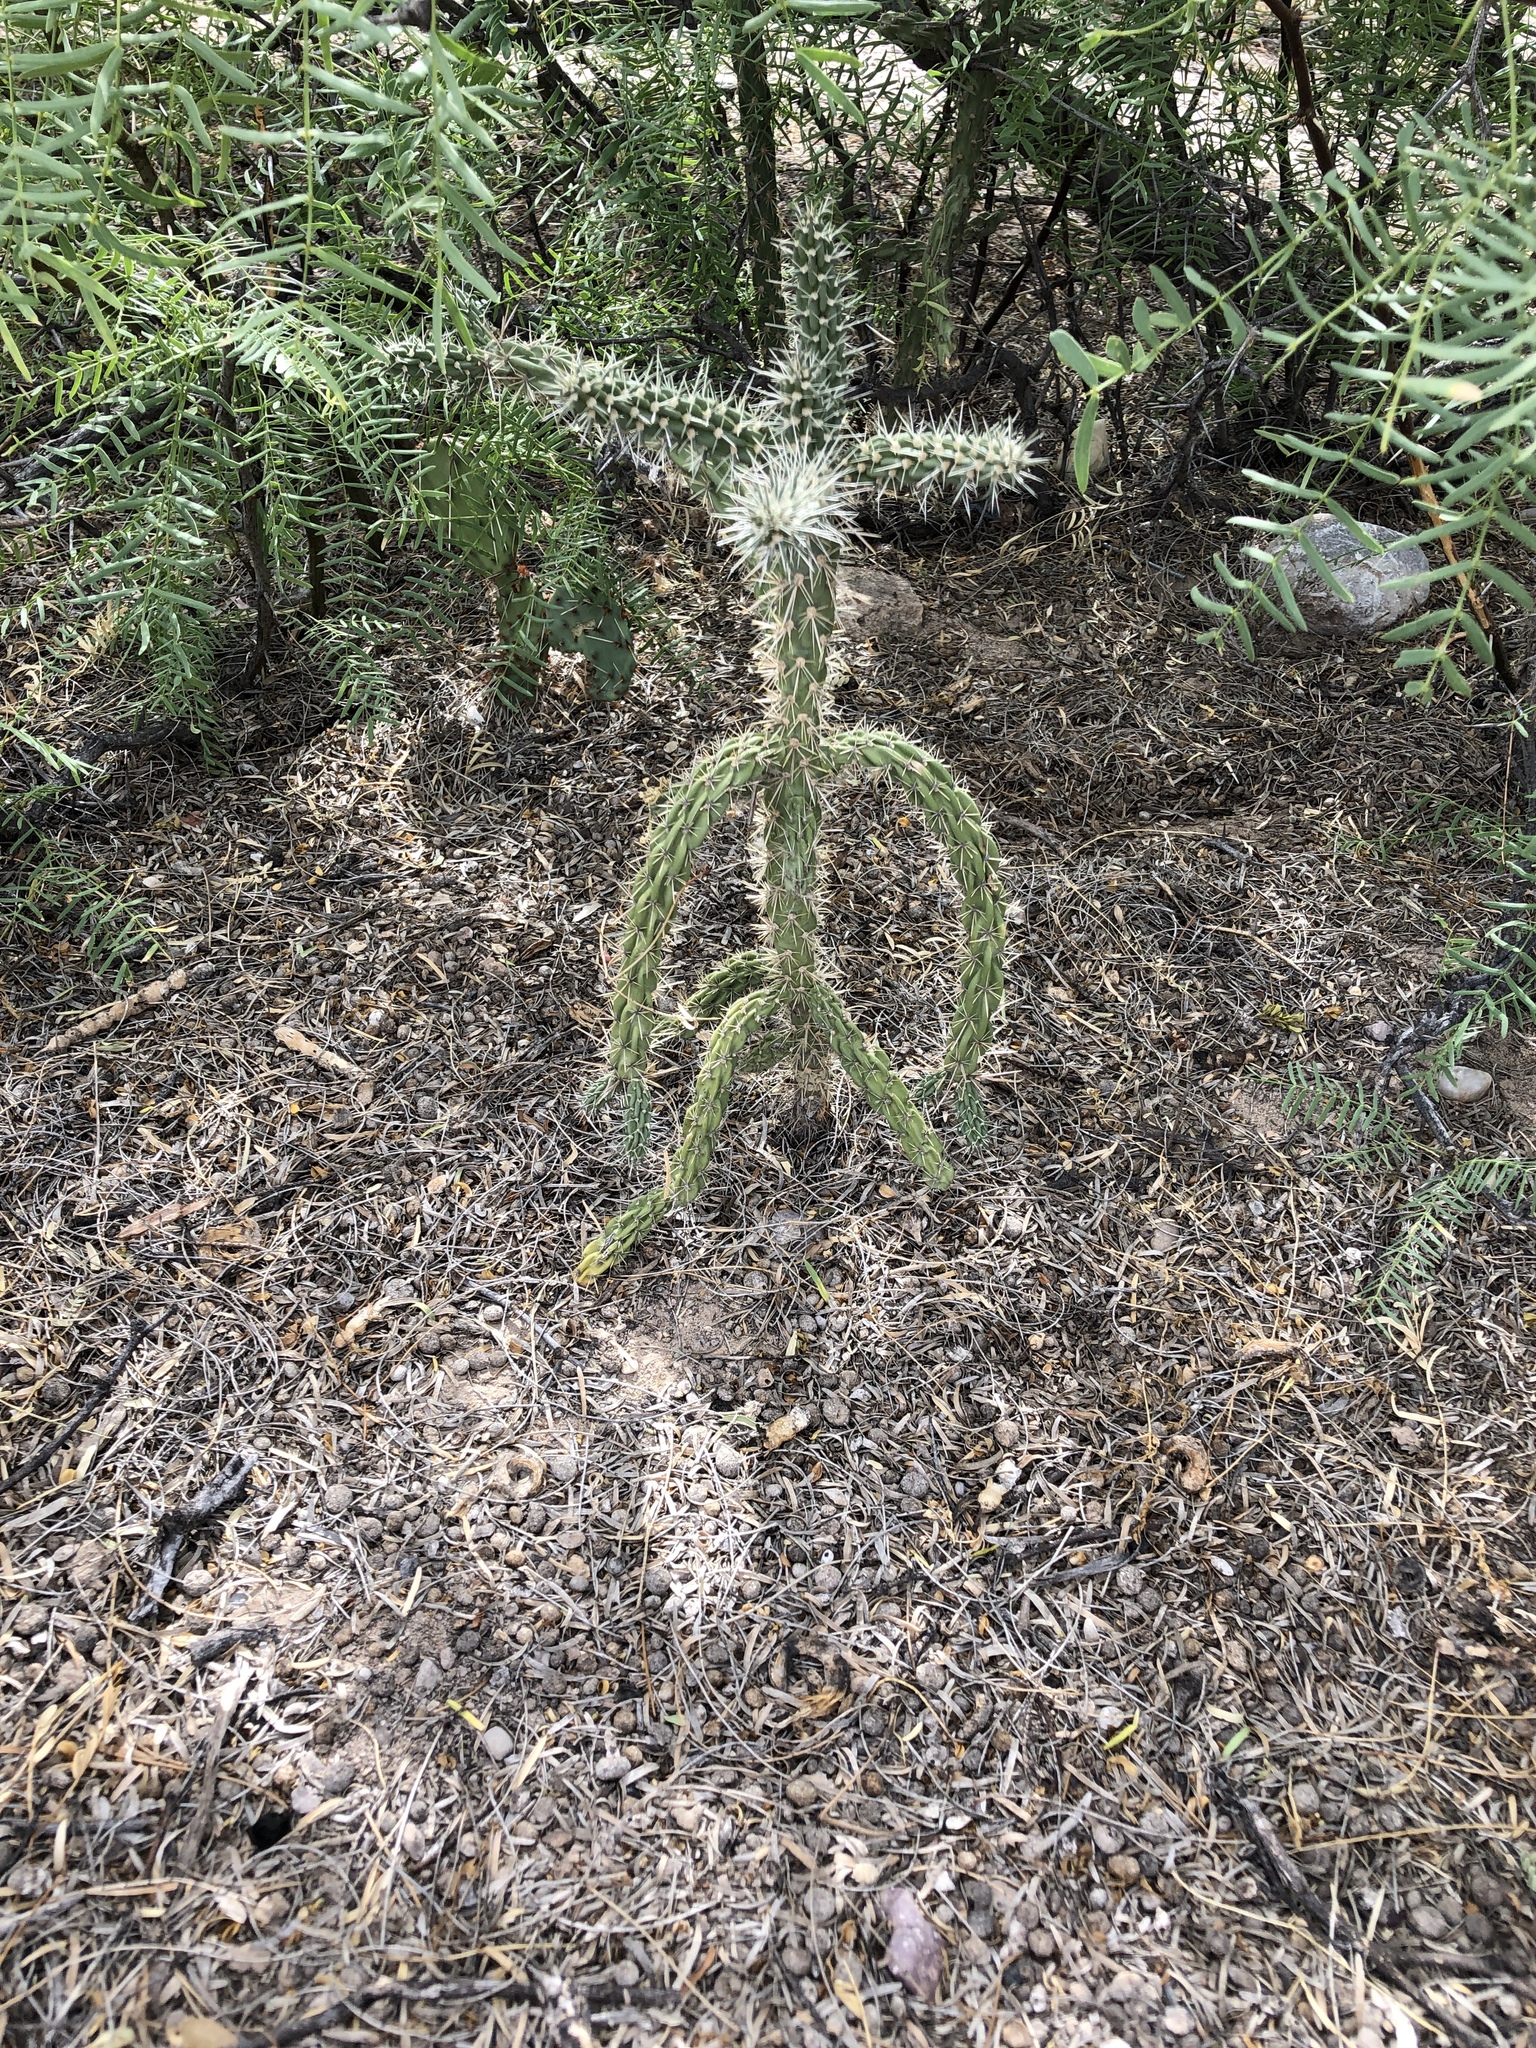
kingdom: Plantae
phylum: Tracheophyta
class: Magnoliopsida
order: Caryophyllales
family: Cactaceae
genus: Cylindropuntia
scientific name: Cylindropuntia imbricata
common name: Candelabrum cactus
